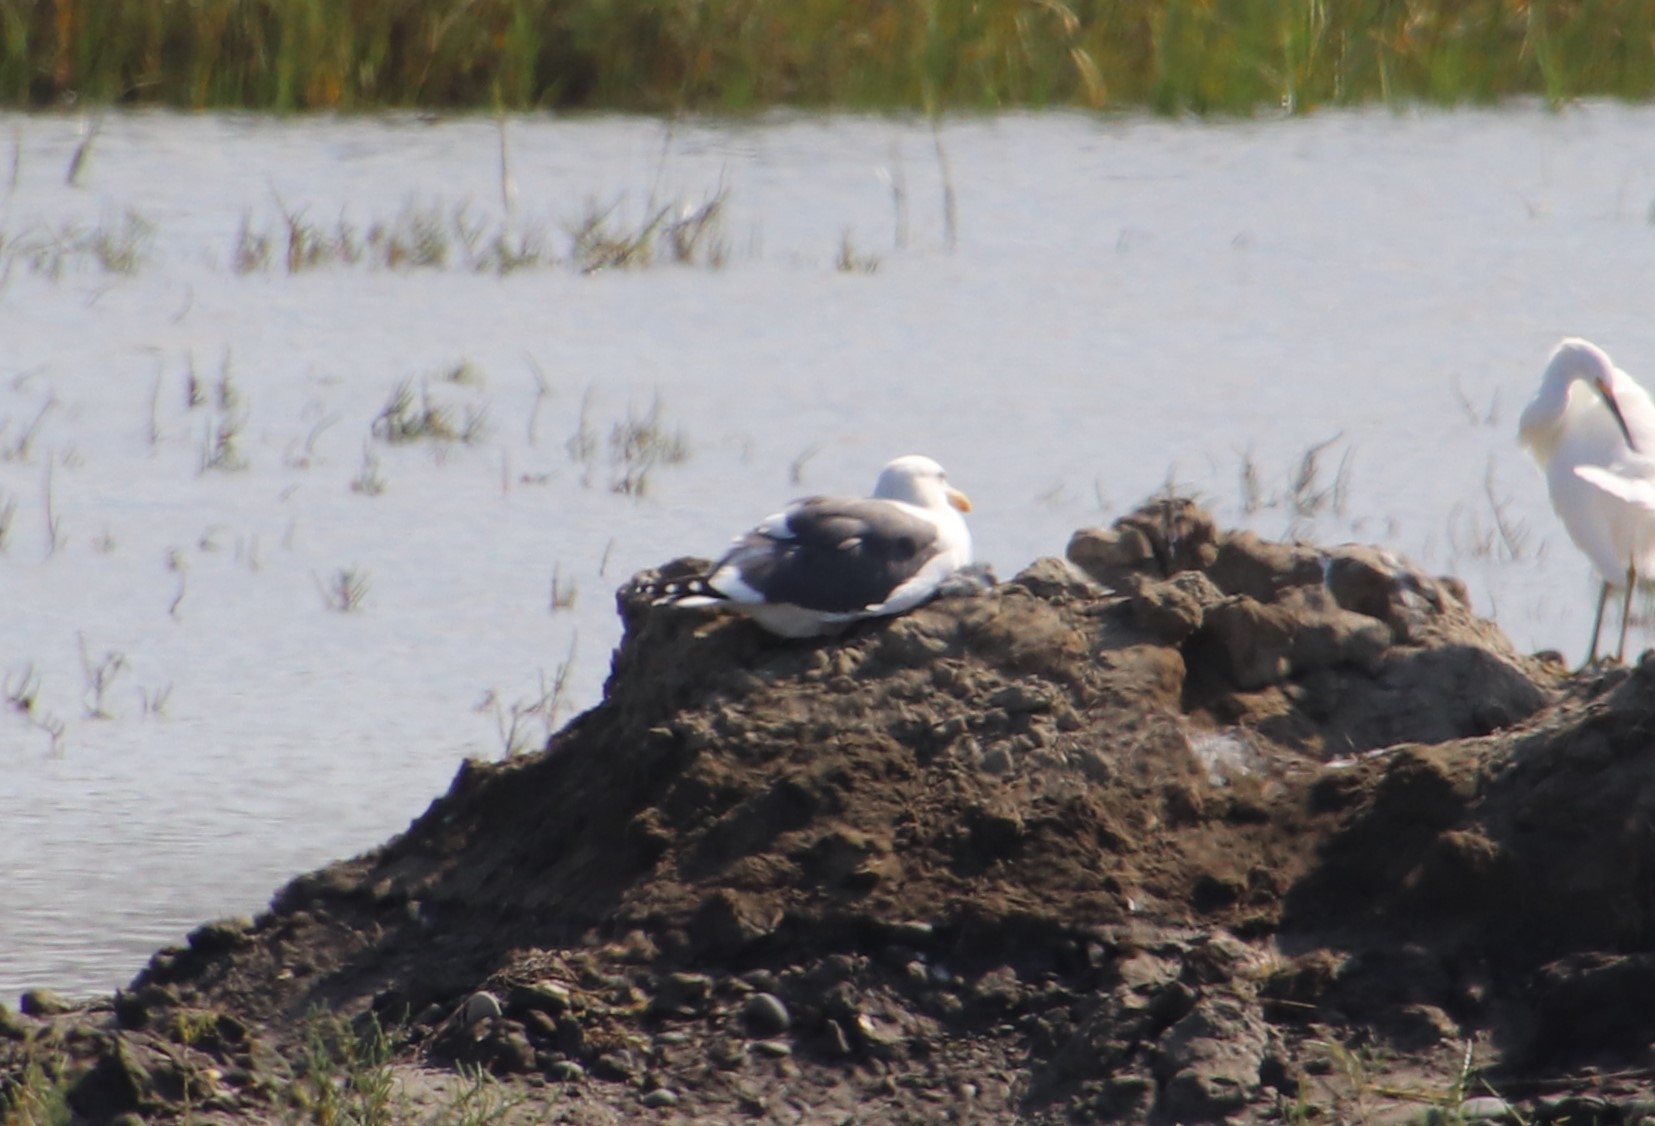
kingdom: Animalia
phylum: Chordata
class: Aves
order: Charadriiformes
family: Laridae
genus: Larus
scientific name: Larus occidentalis
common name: Western gull
